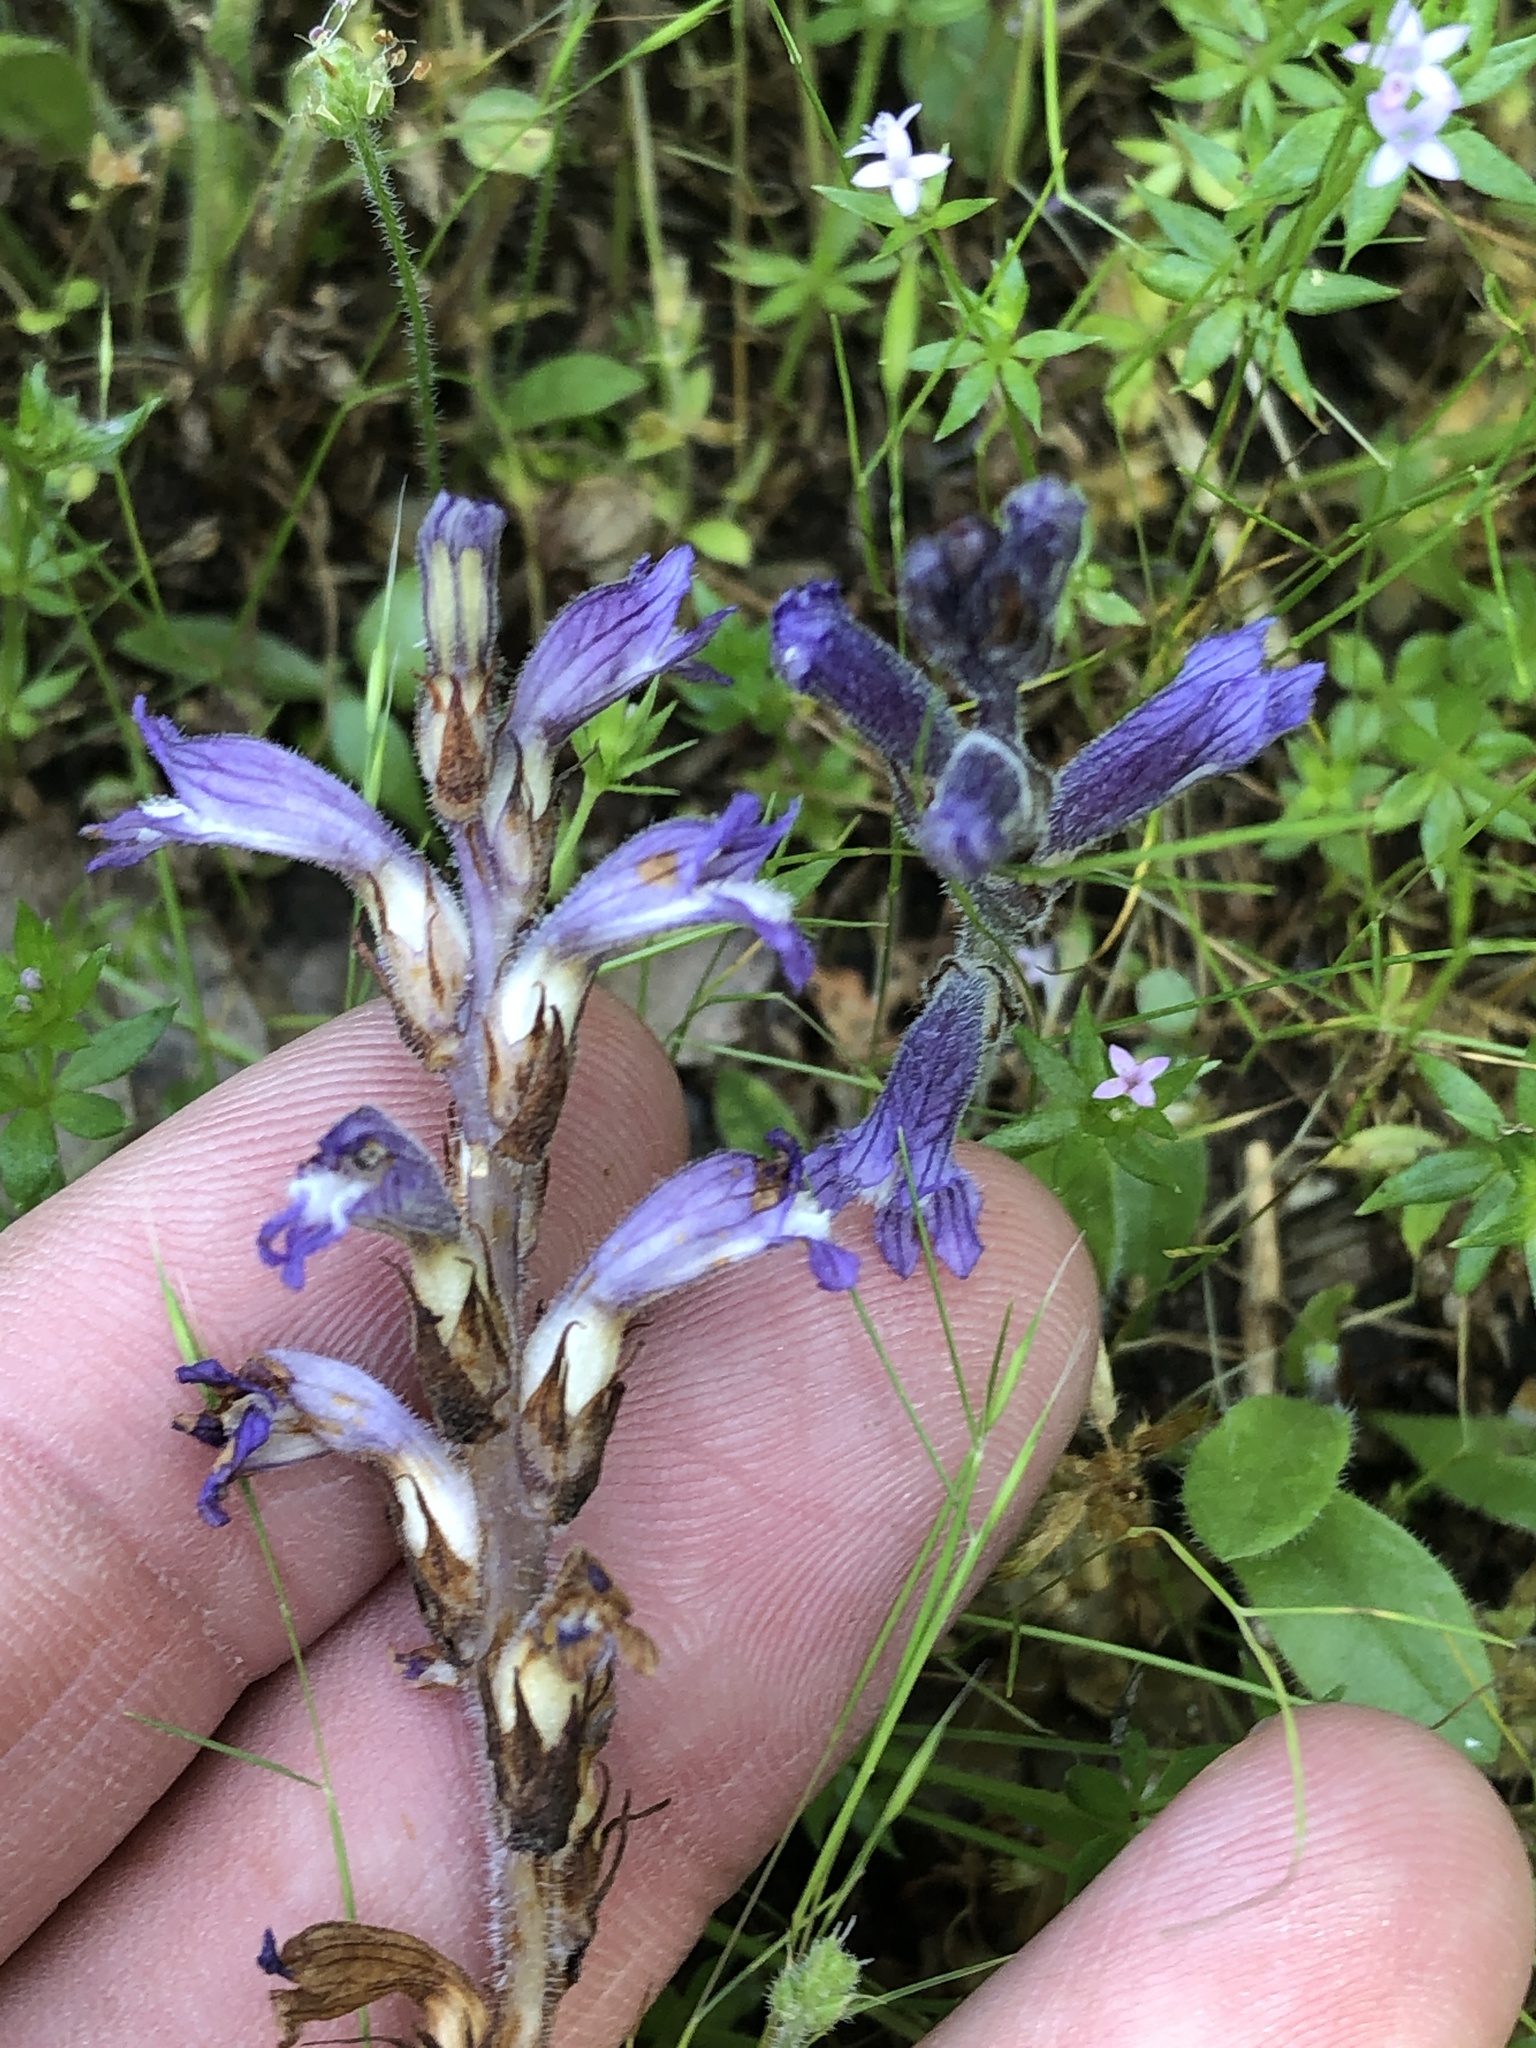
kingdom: Plantae
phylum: Tracheophyta
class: Magnoliopsida
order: Lamiales
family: Orobanchaceae
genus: Phelipanche
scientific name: Phelipanche mutelii
